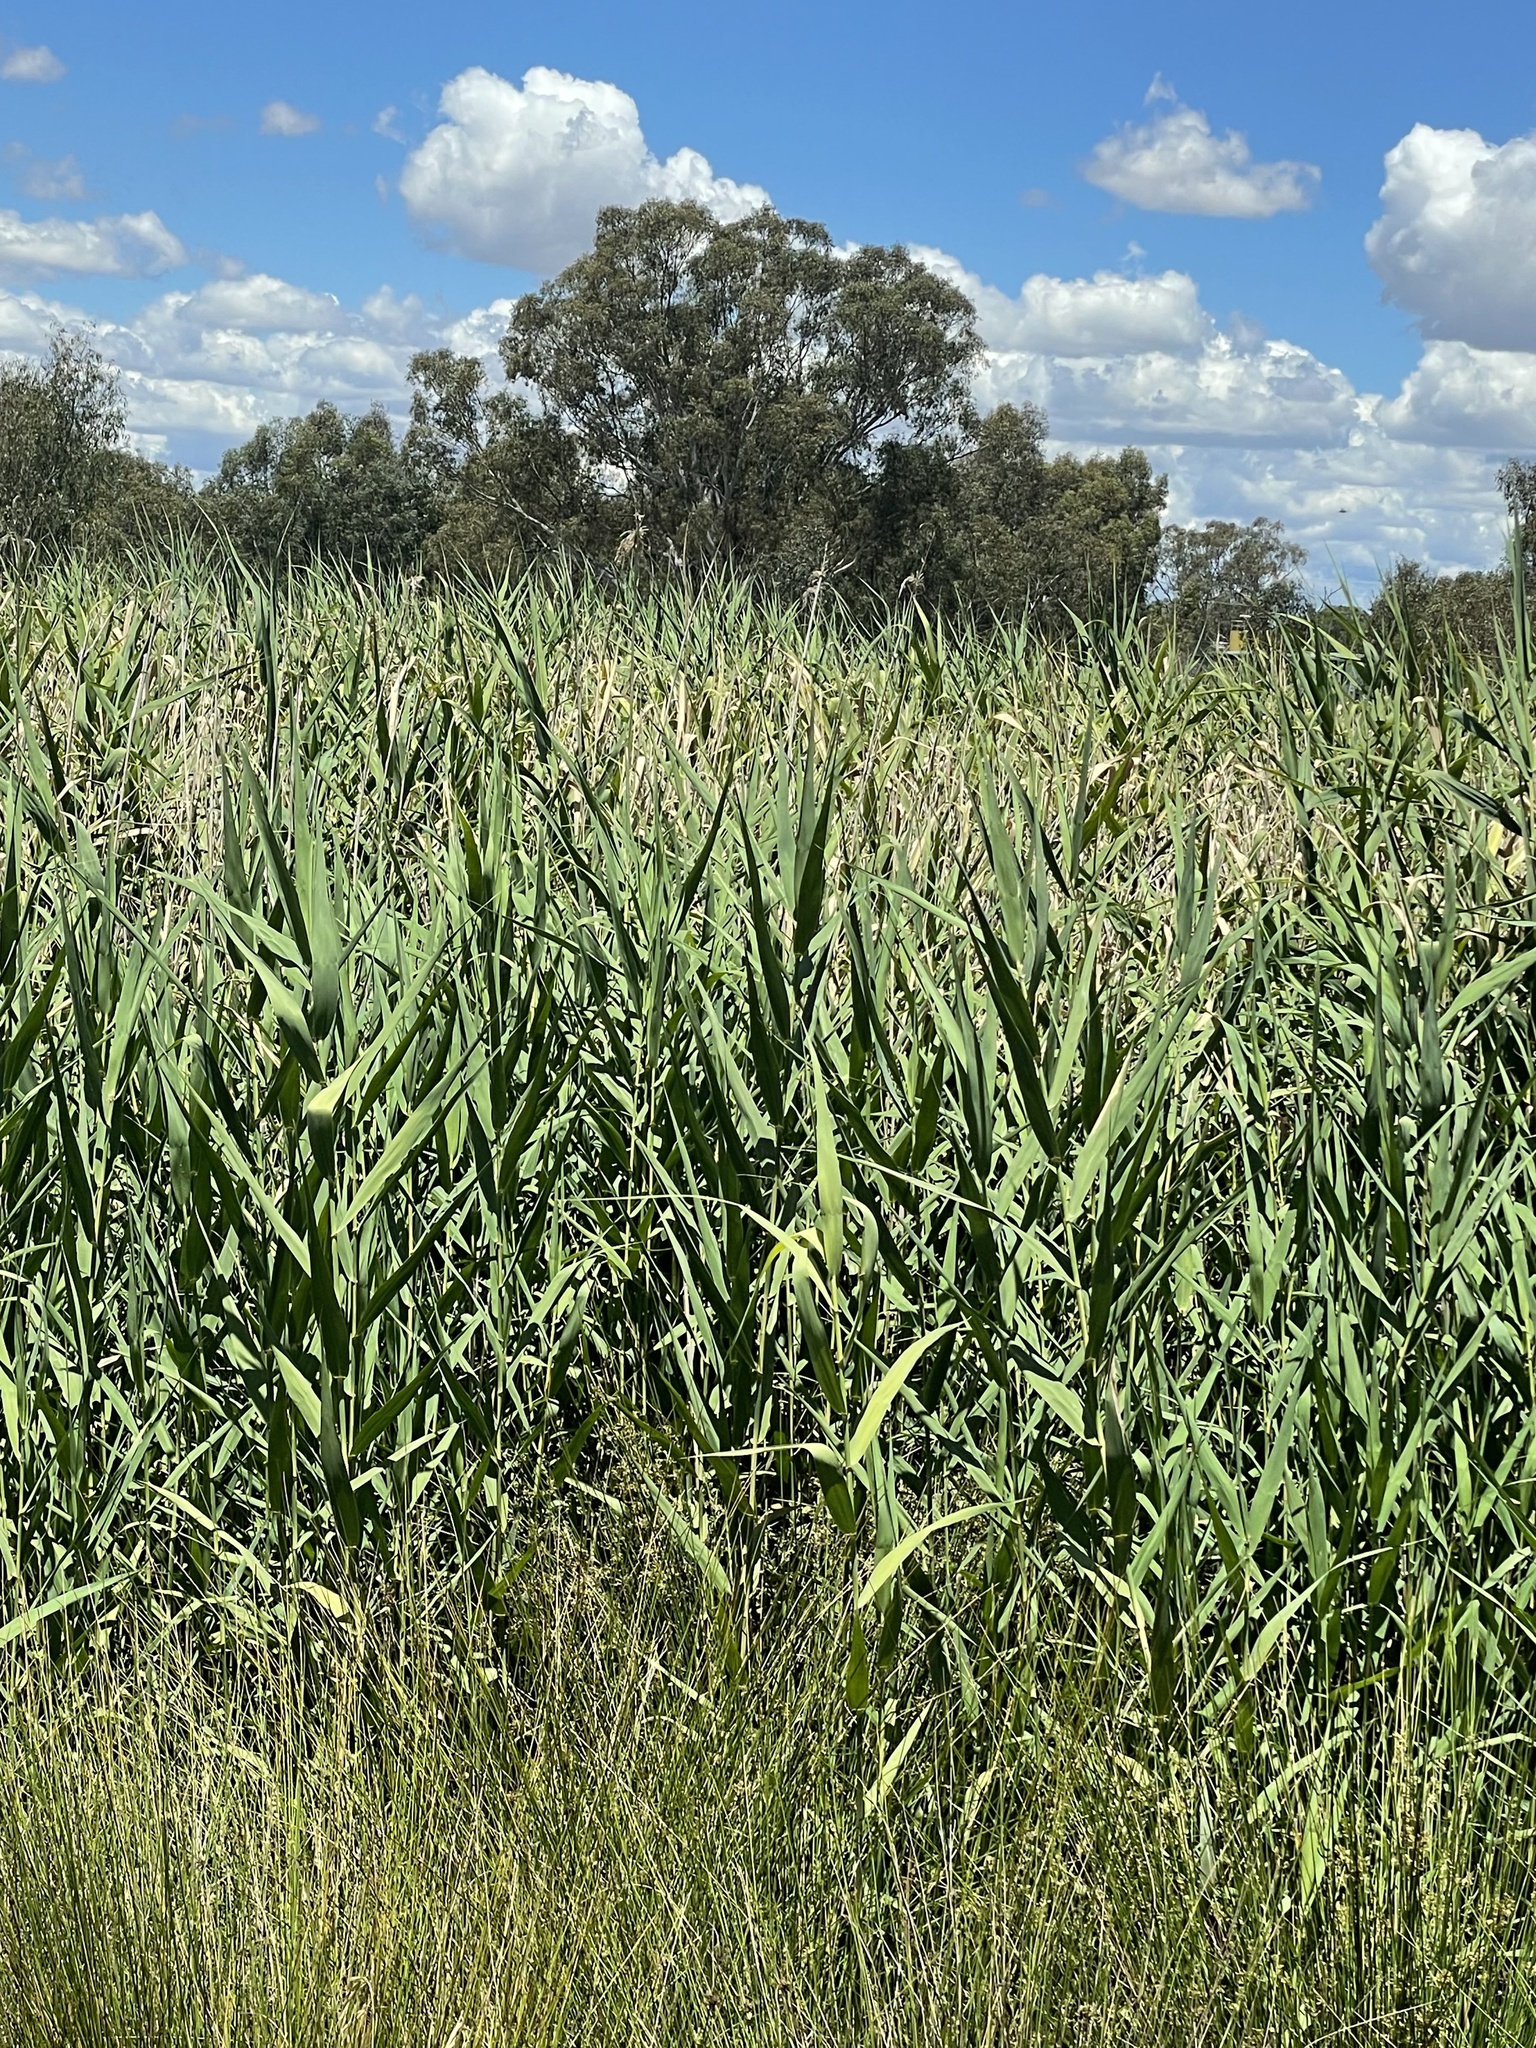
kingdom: Plantae
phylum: Tracheophyta
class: Liliopsida
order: Poales
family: Poaceae
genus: Phragmites
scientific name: Phragmites australis
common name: Common reed
